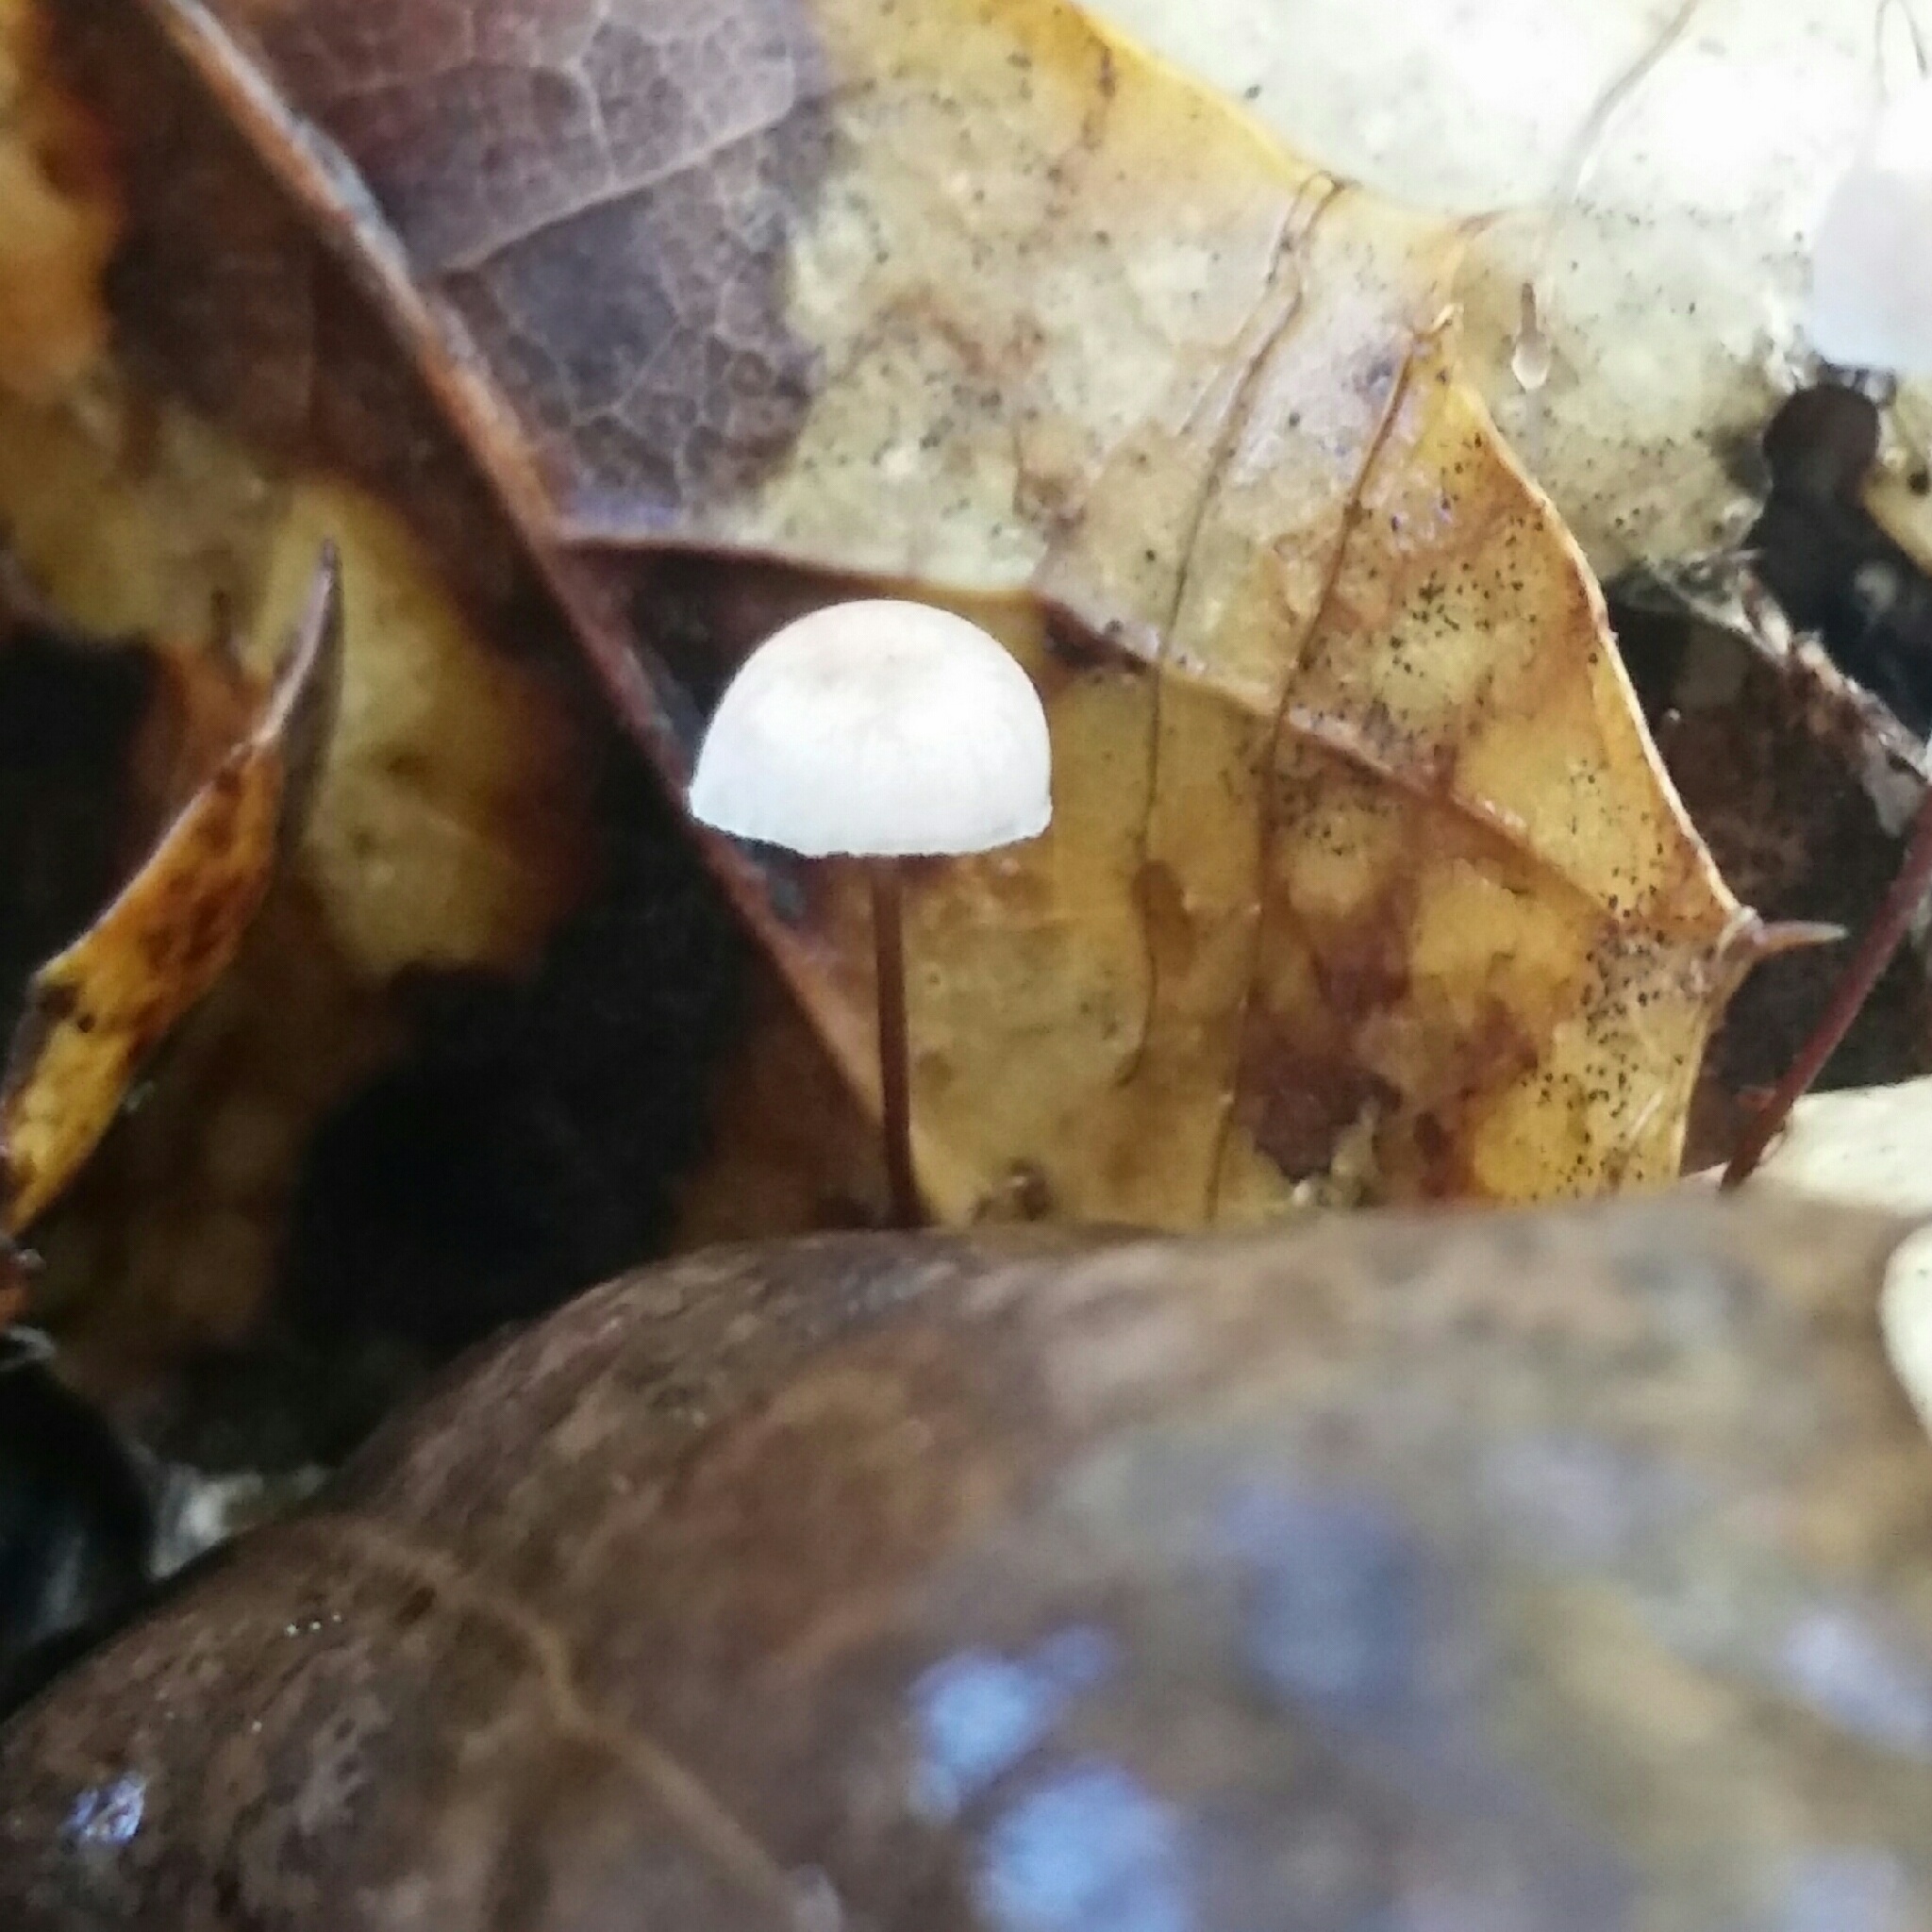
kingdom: Fungi
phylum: Basidiomycota
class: Agaricomycetes
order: Agaricales
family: Omphalotaceae
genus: Collybiopsis
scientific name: Collybiopsis quercophila
